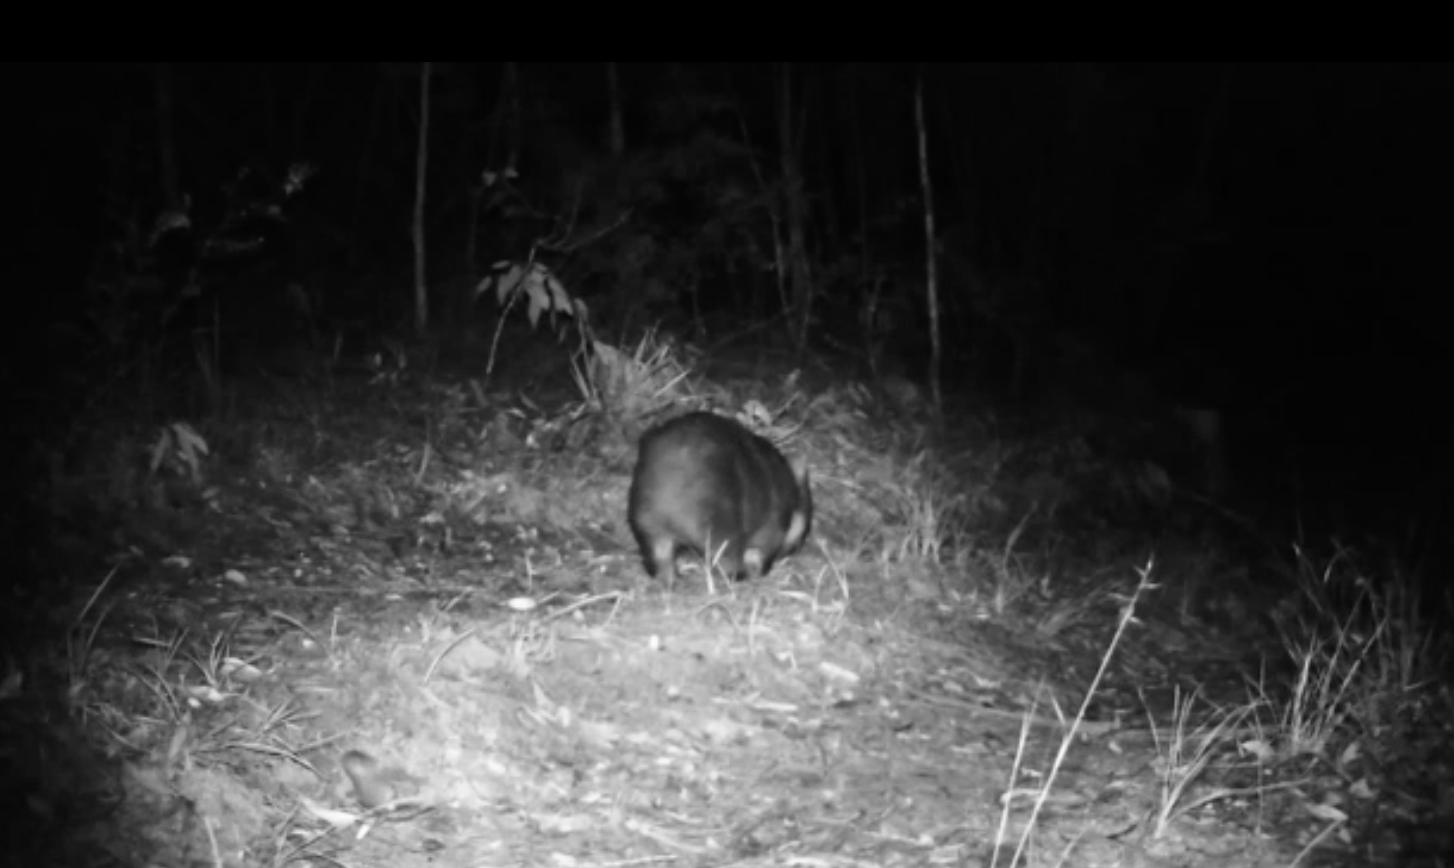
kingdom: Animalia
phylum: Chordata
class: Mammalia
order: Diprotodontia
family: Vombatidae
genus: Vombatus
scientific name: Vombatus ursinus
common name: Common wombat
